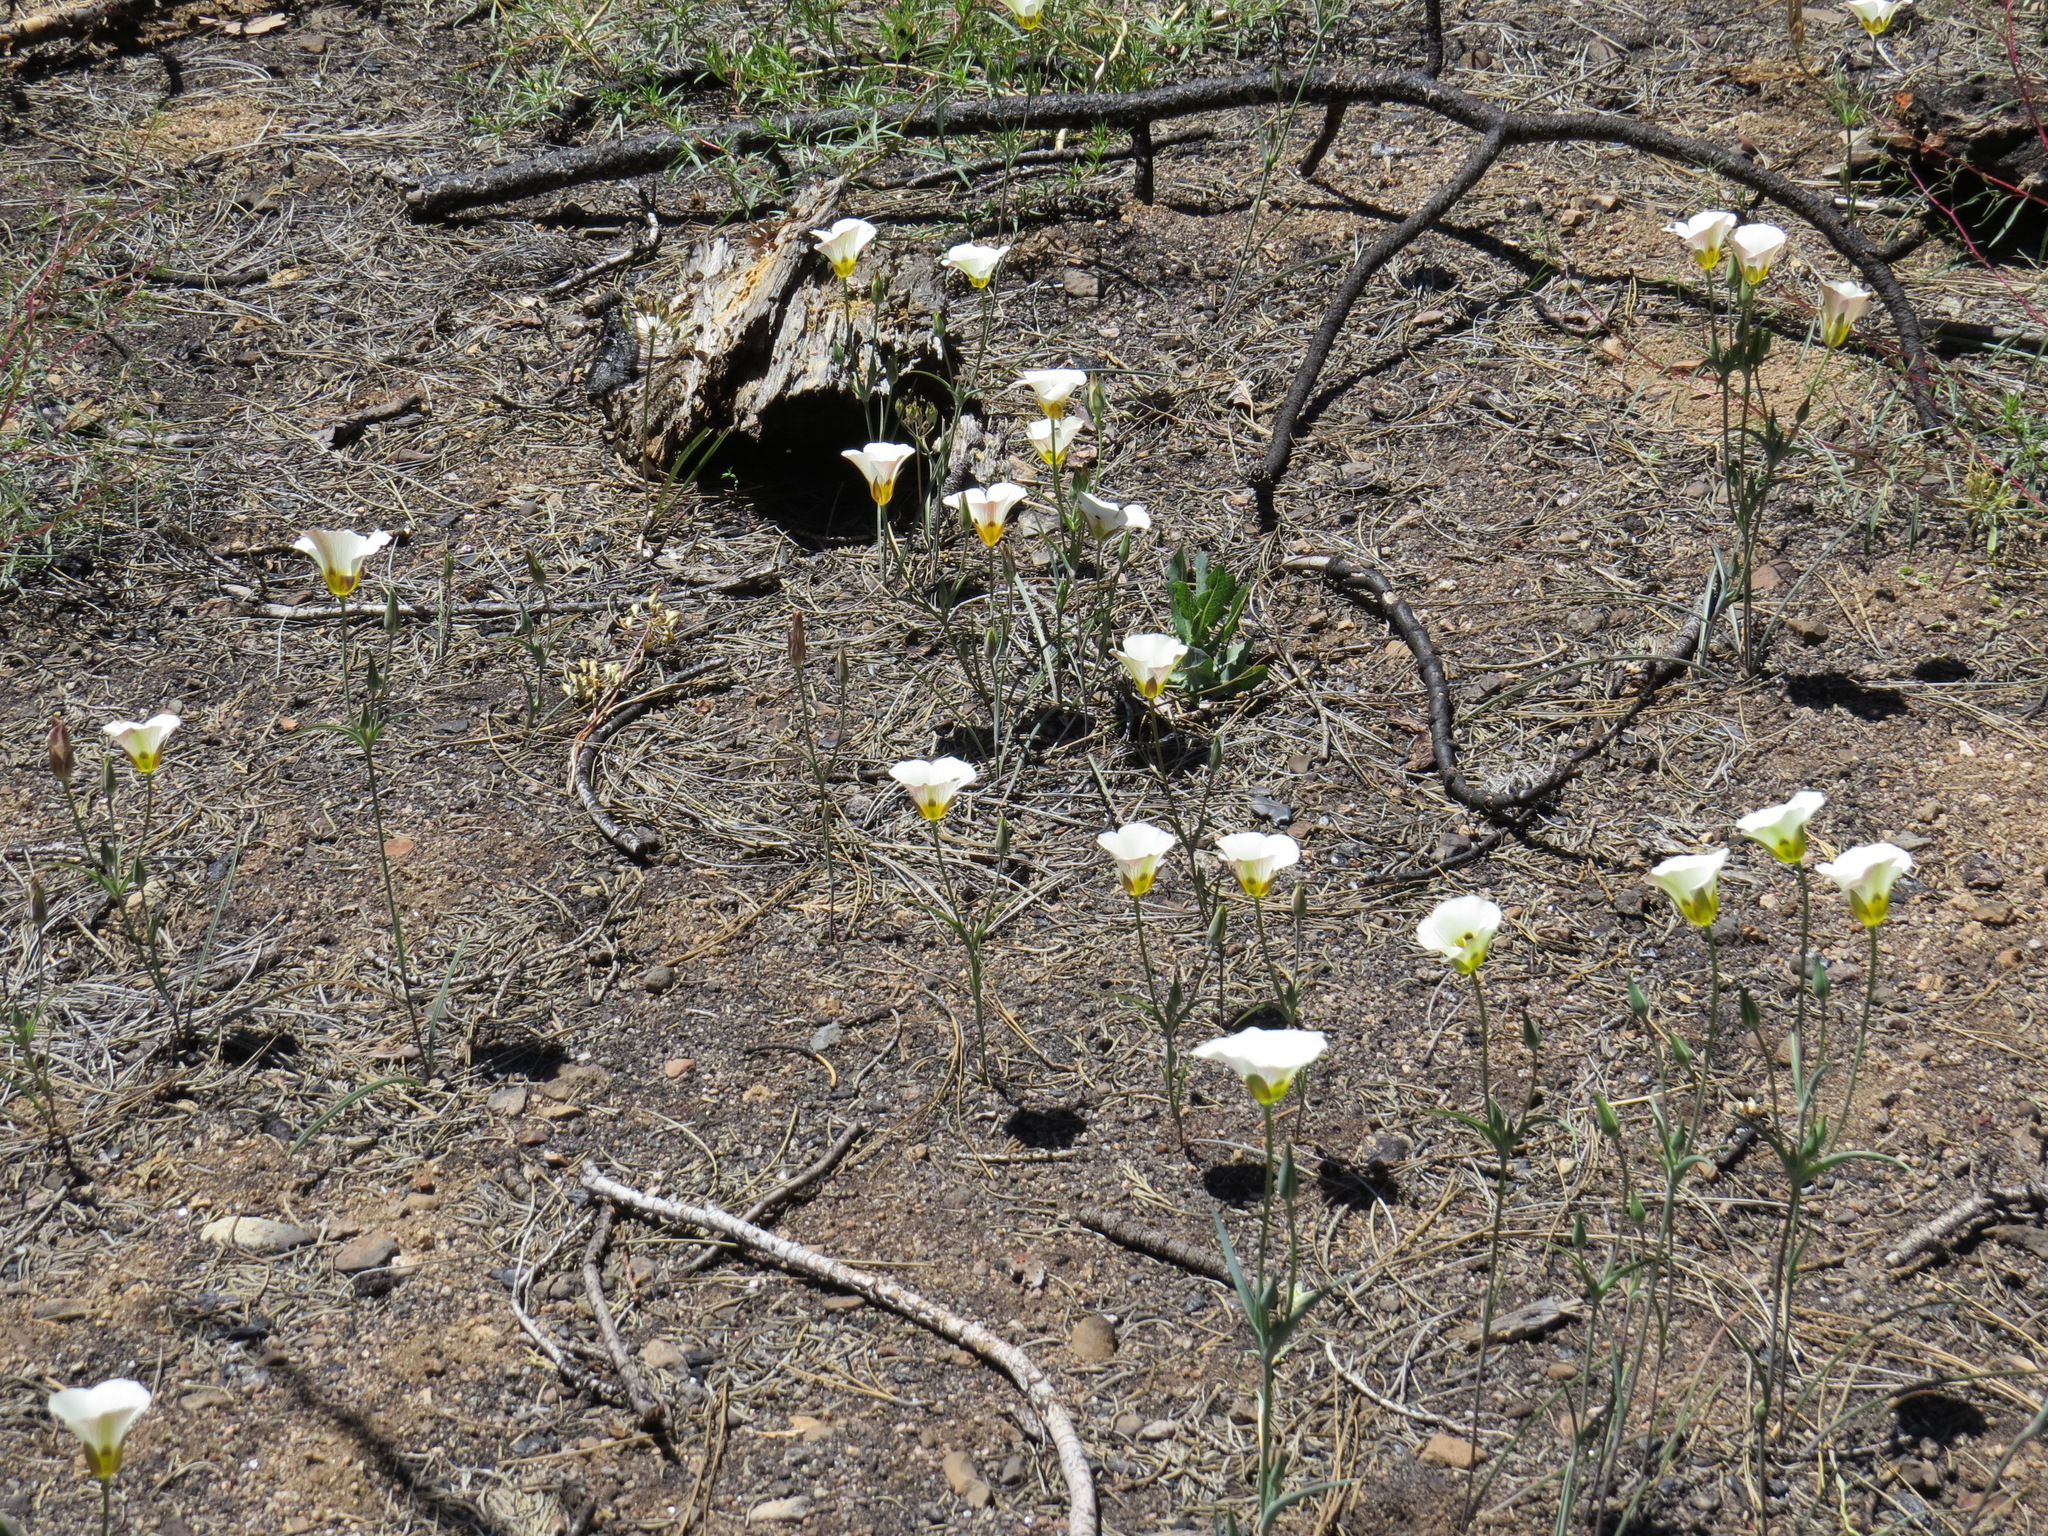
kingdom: Plantae
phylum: Tracheophyta
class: Liliopsida
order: Liliales
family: Liliaceae
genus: Calochortus
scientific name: Calochortus leichtlinii
